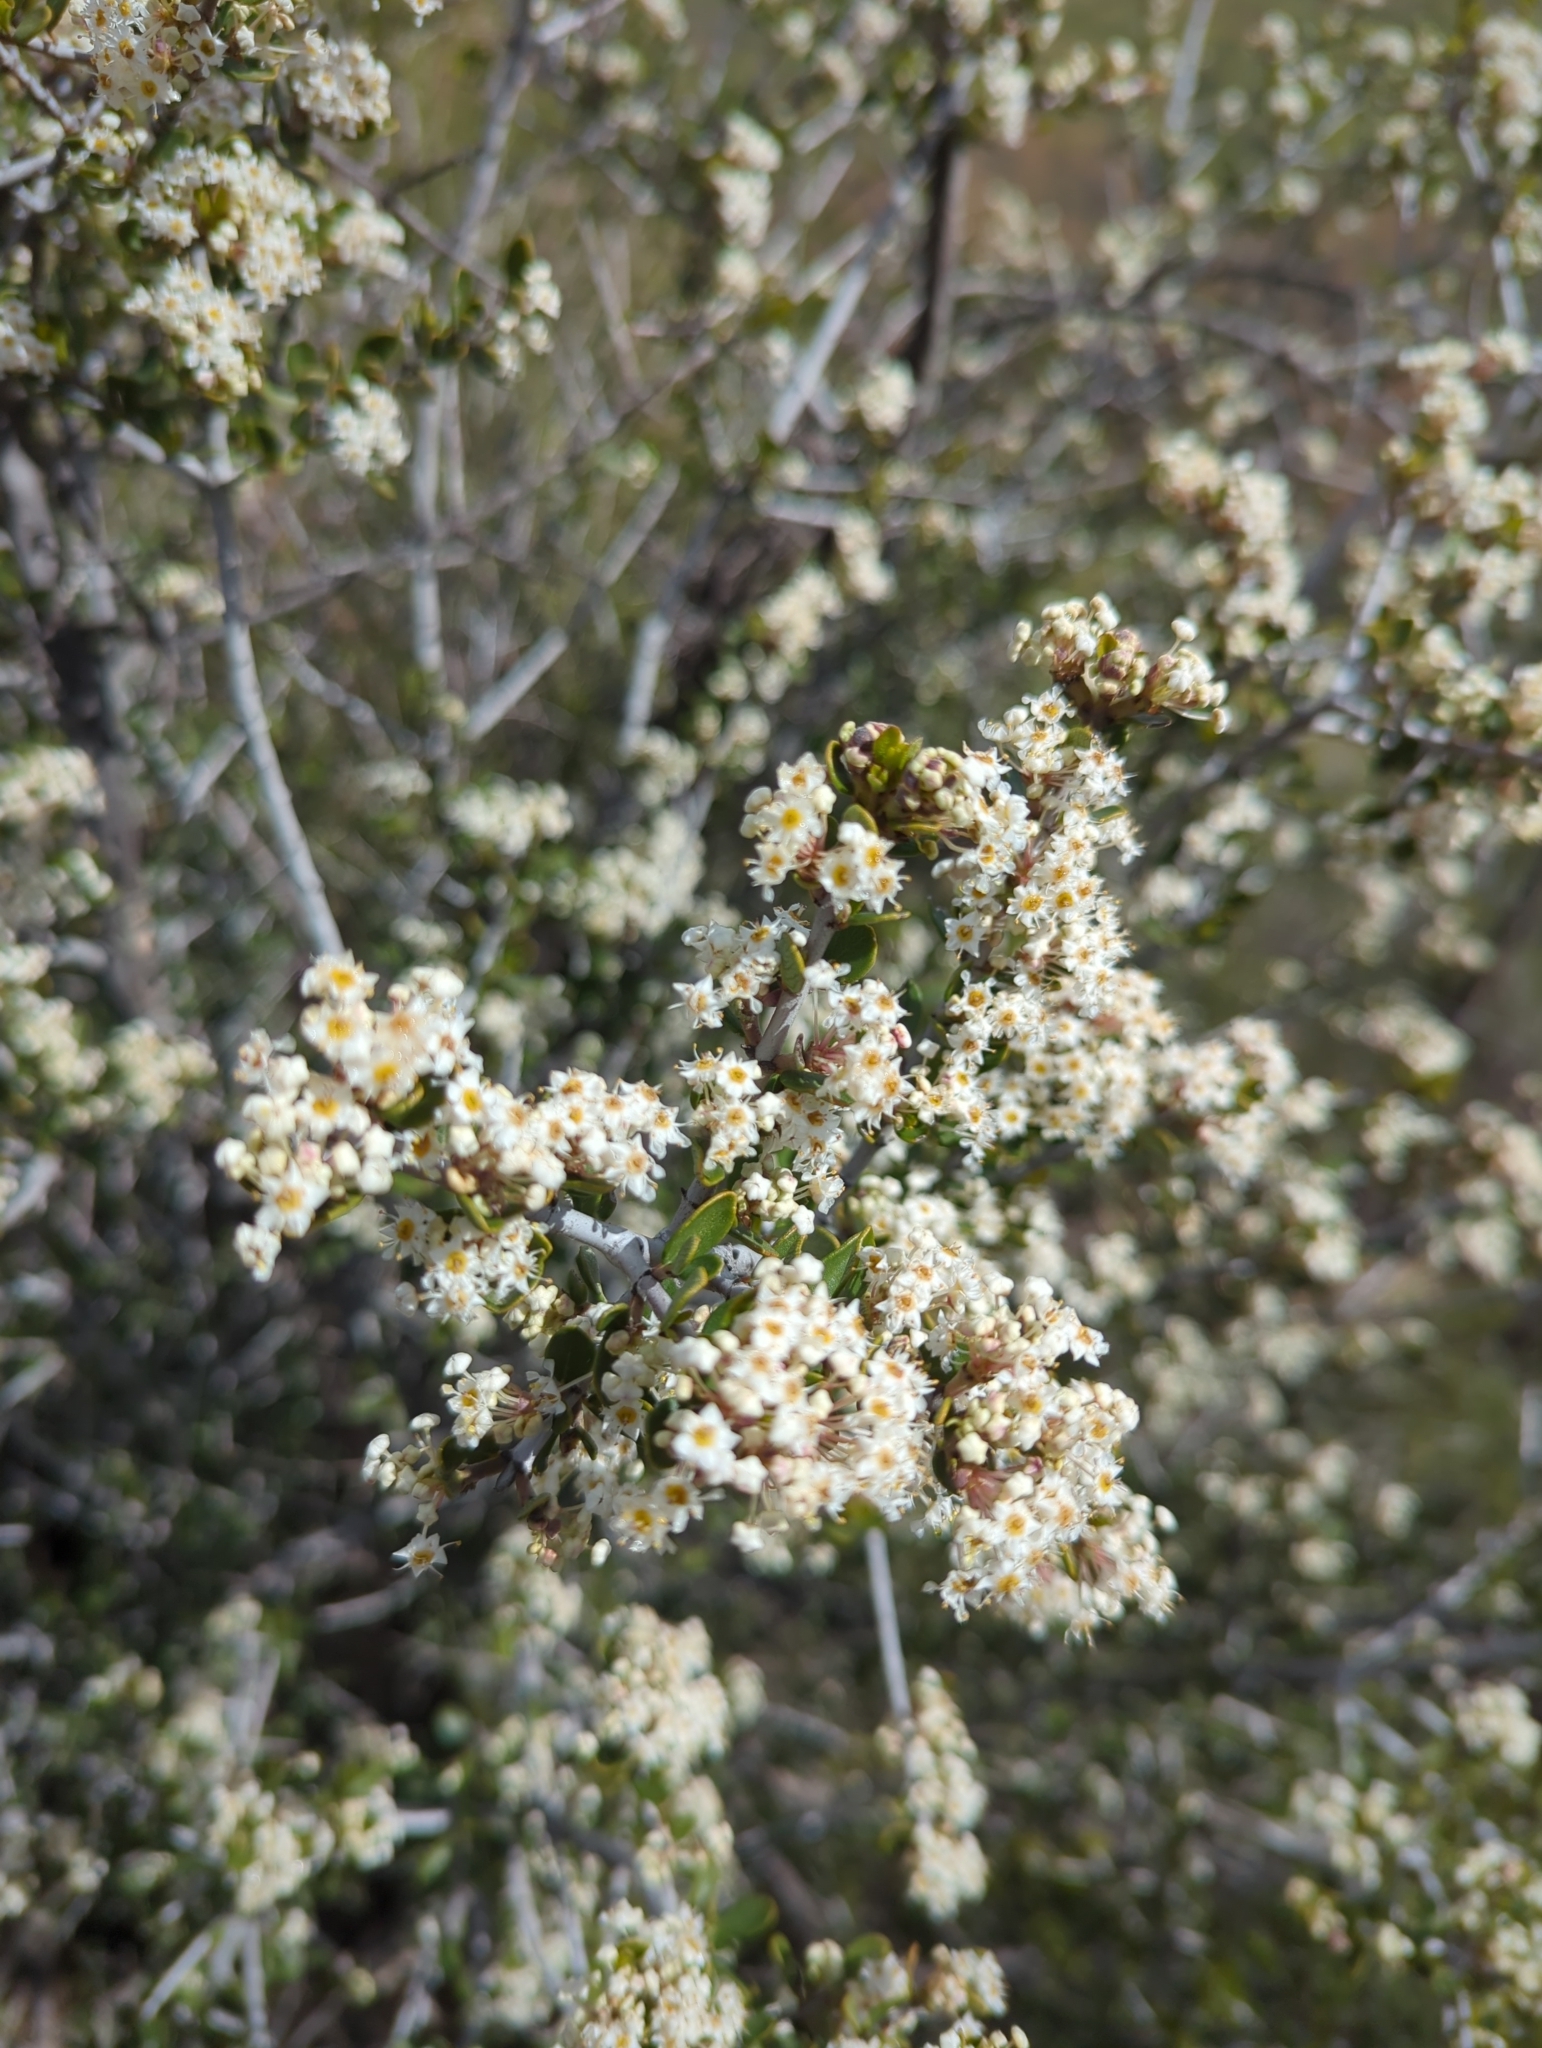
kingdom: Plantae
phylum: Tracheophyta
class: Magnoliopsida
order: Rosales
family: Rhamnaceae
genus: Ceanothus
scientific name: Ceanothus crassifolius
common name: Hoaryleaf ceanothus
